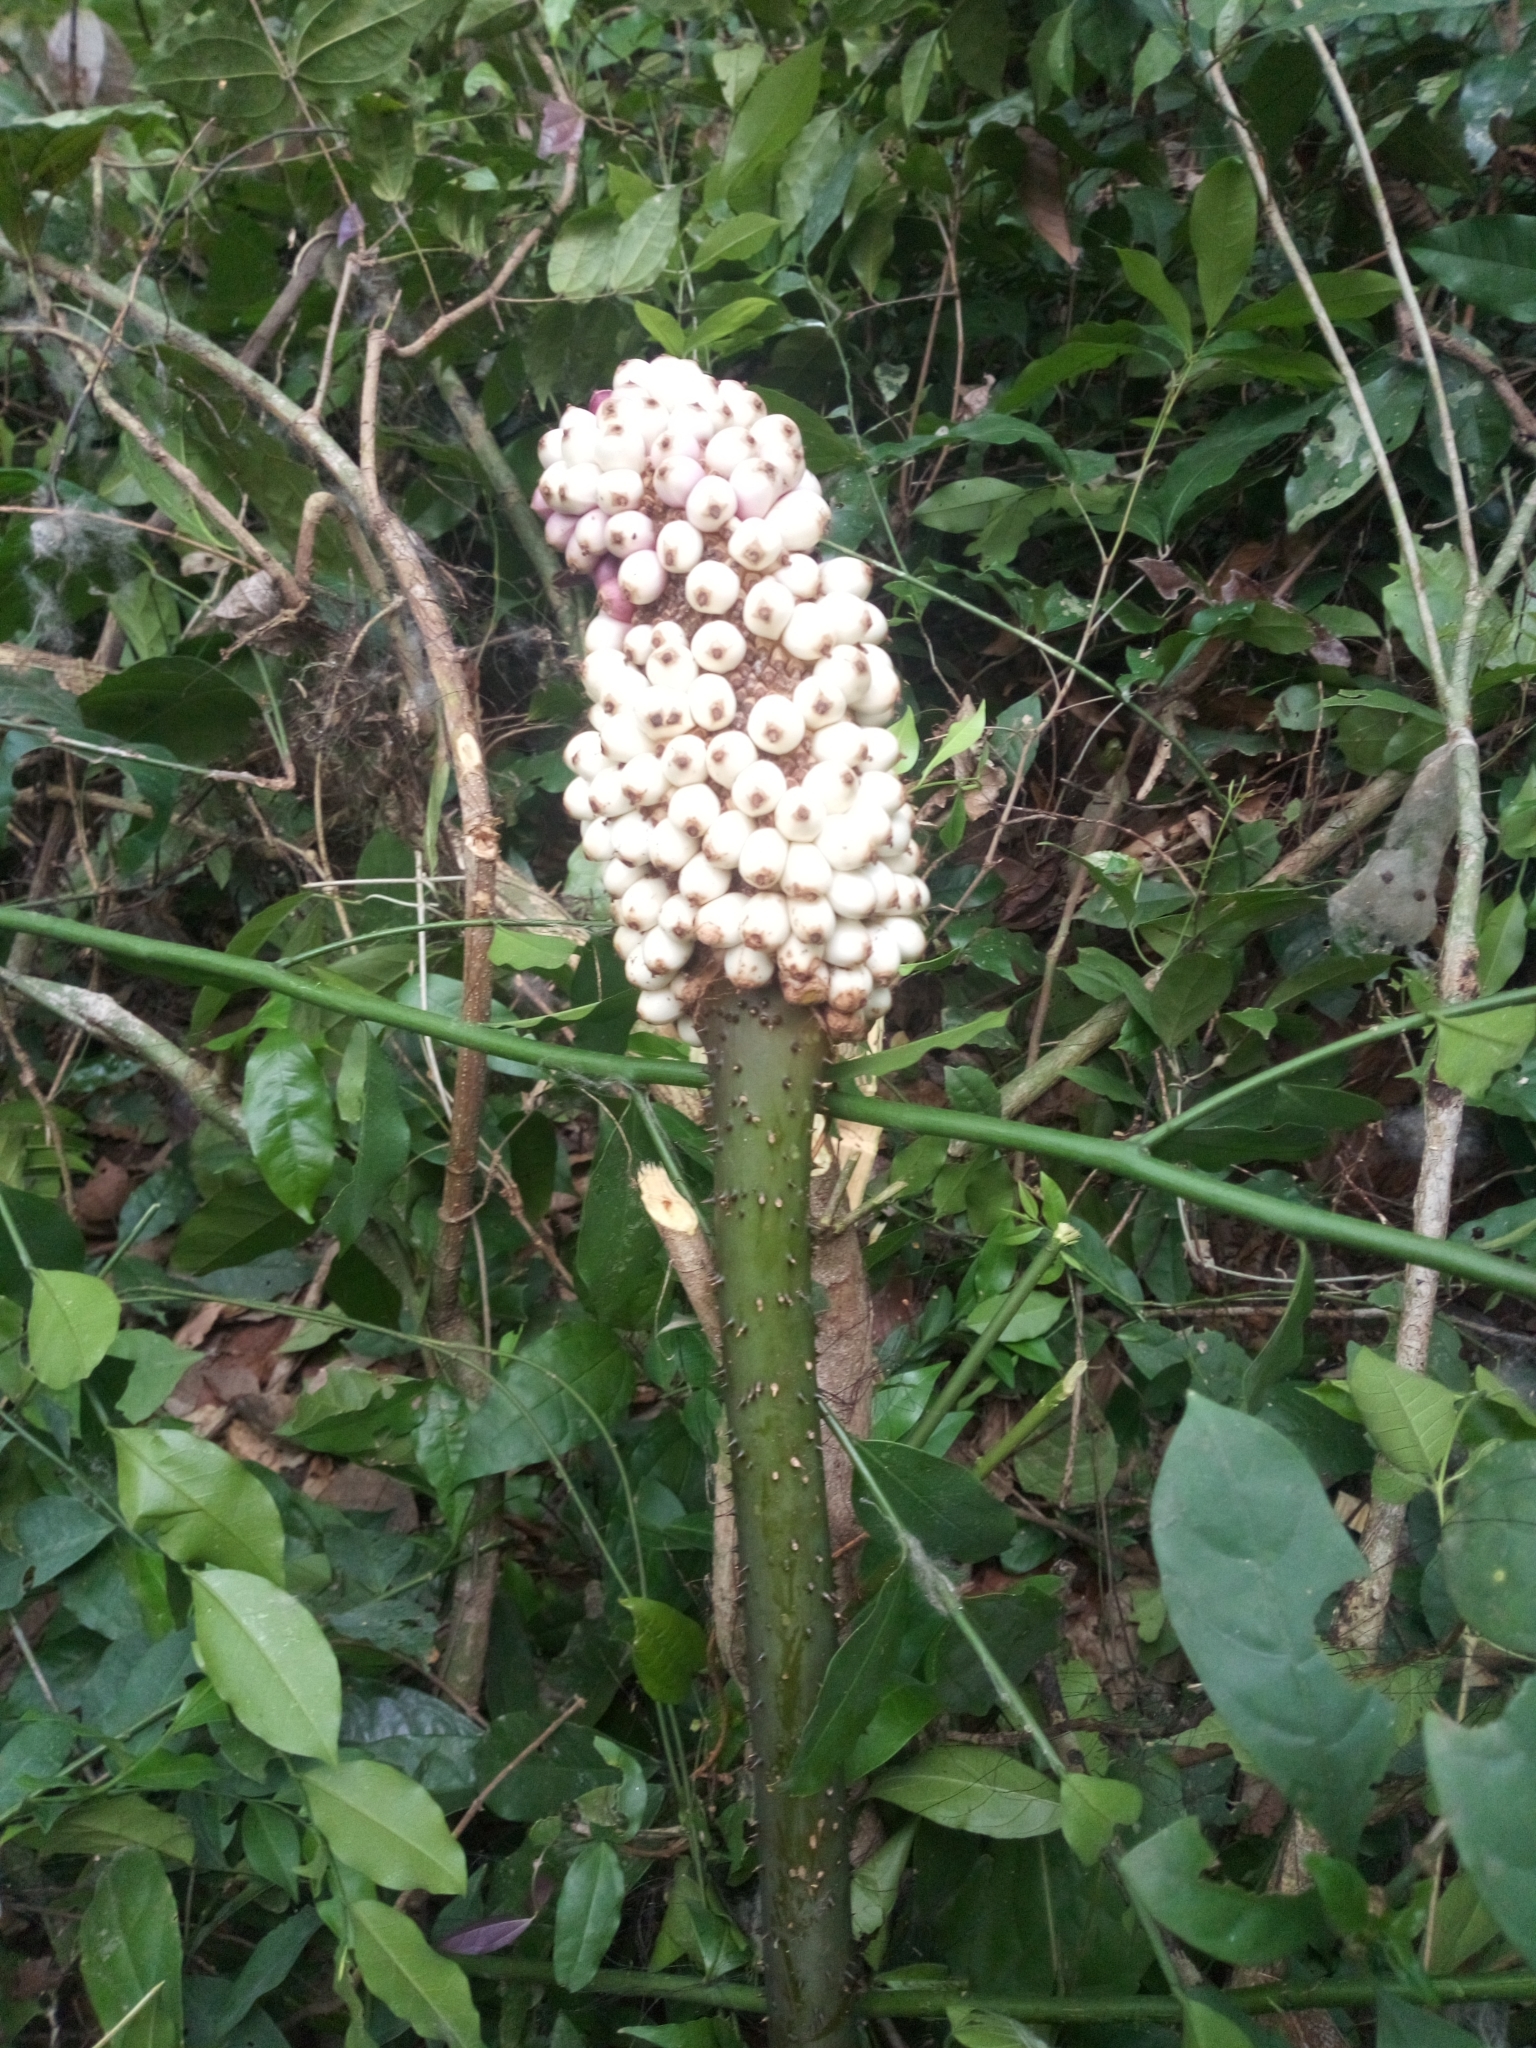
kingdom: Plantae
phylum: Tracheophyta
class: Liliopsida
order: Alismatales
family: Araceae
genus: Anchomanes
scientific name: Anchomanes difformis
